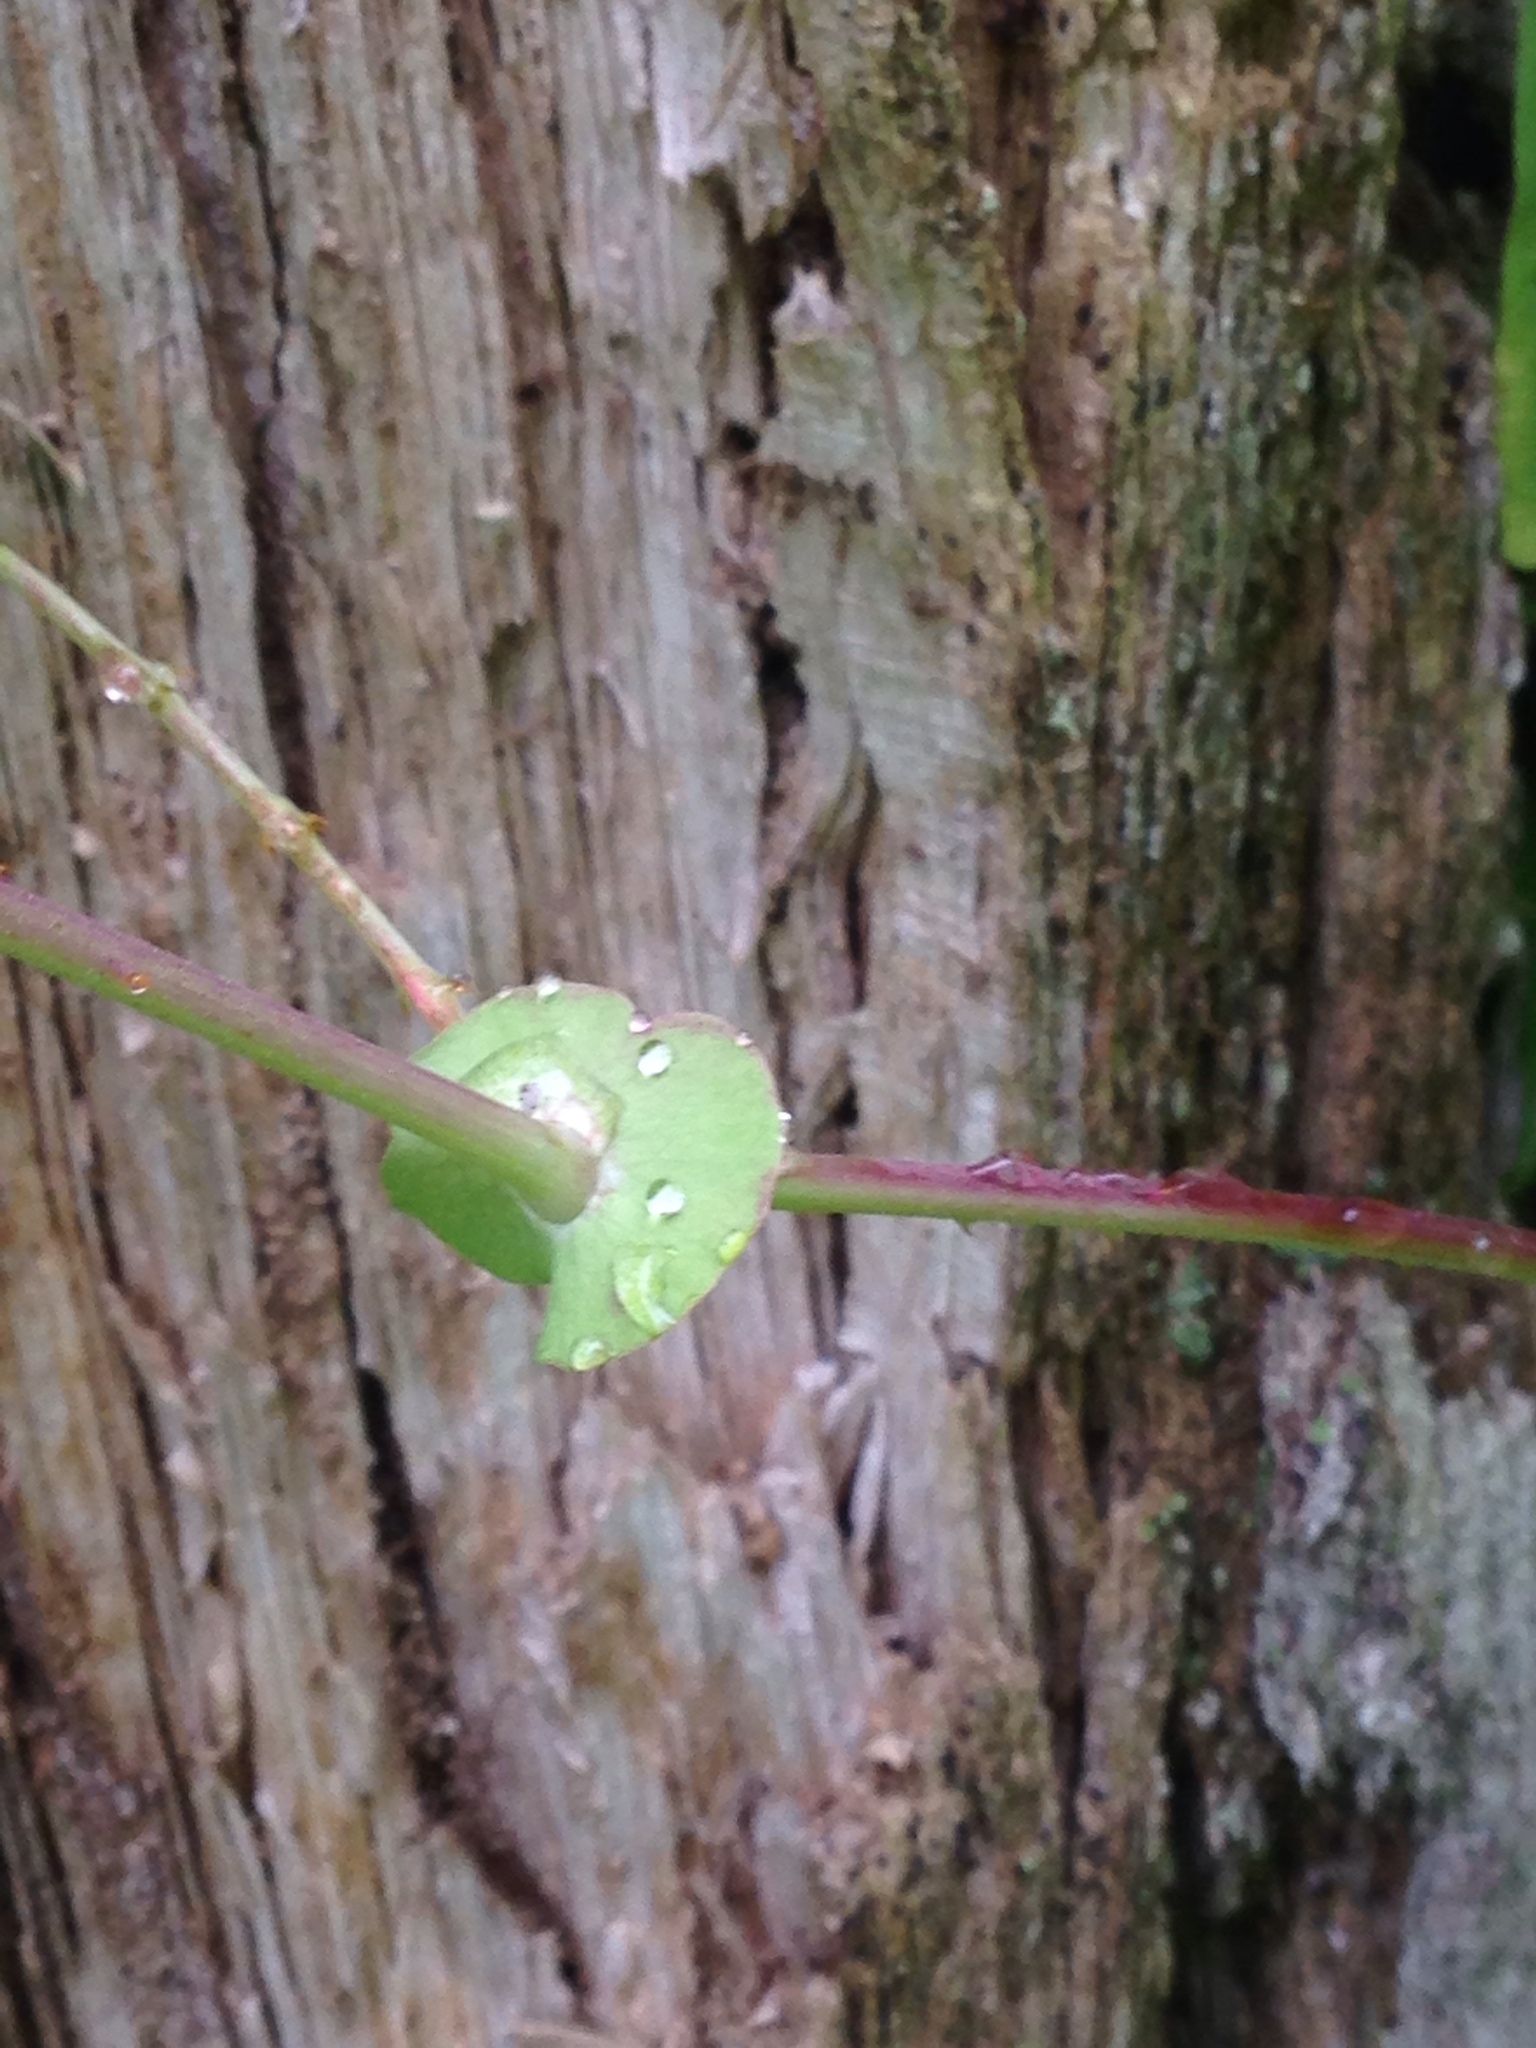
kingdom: Plantae
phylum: Tracheophyta
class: Magnoliopsida
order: Caryophyllales
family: Polygonaceae
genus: Persicaria
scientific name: Persicaria perfoliata
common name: Asiatic tearthumb
